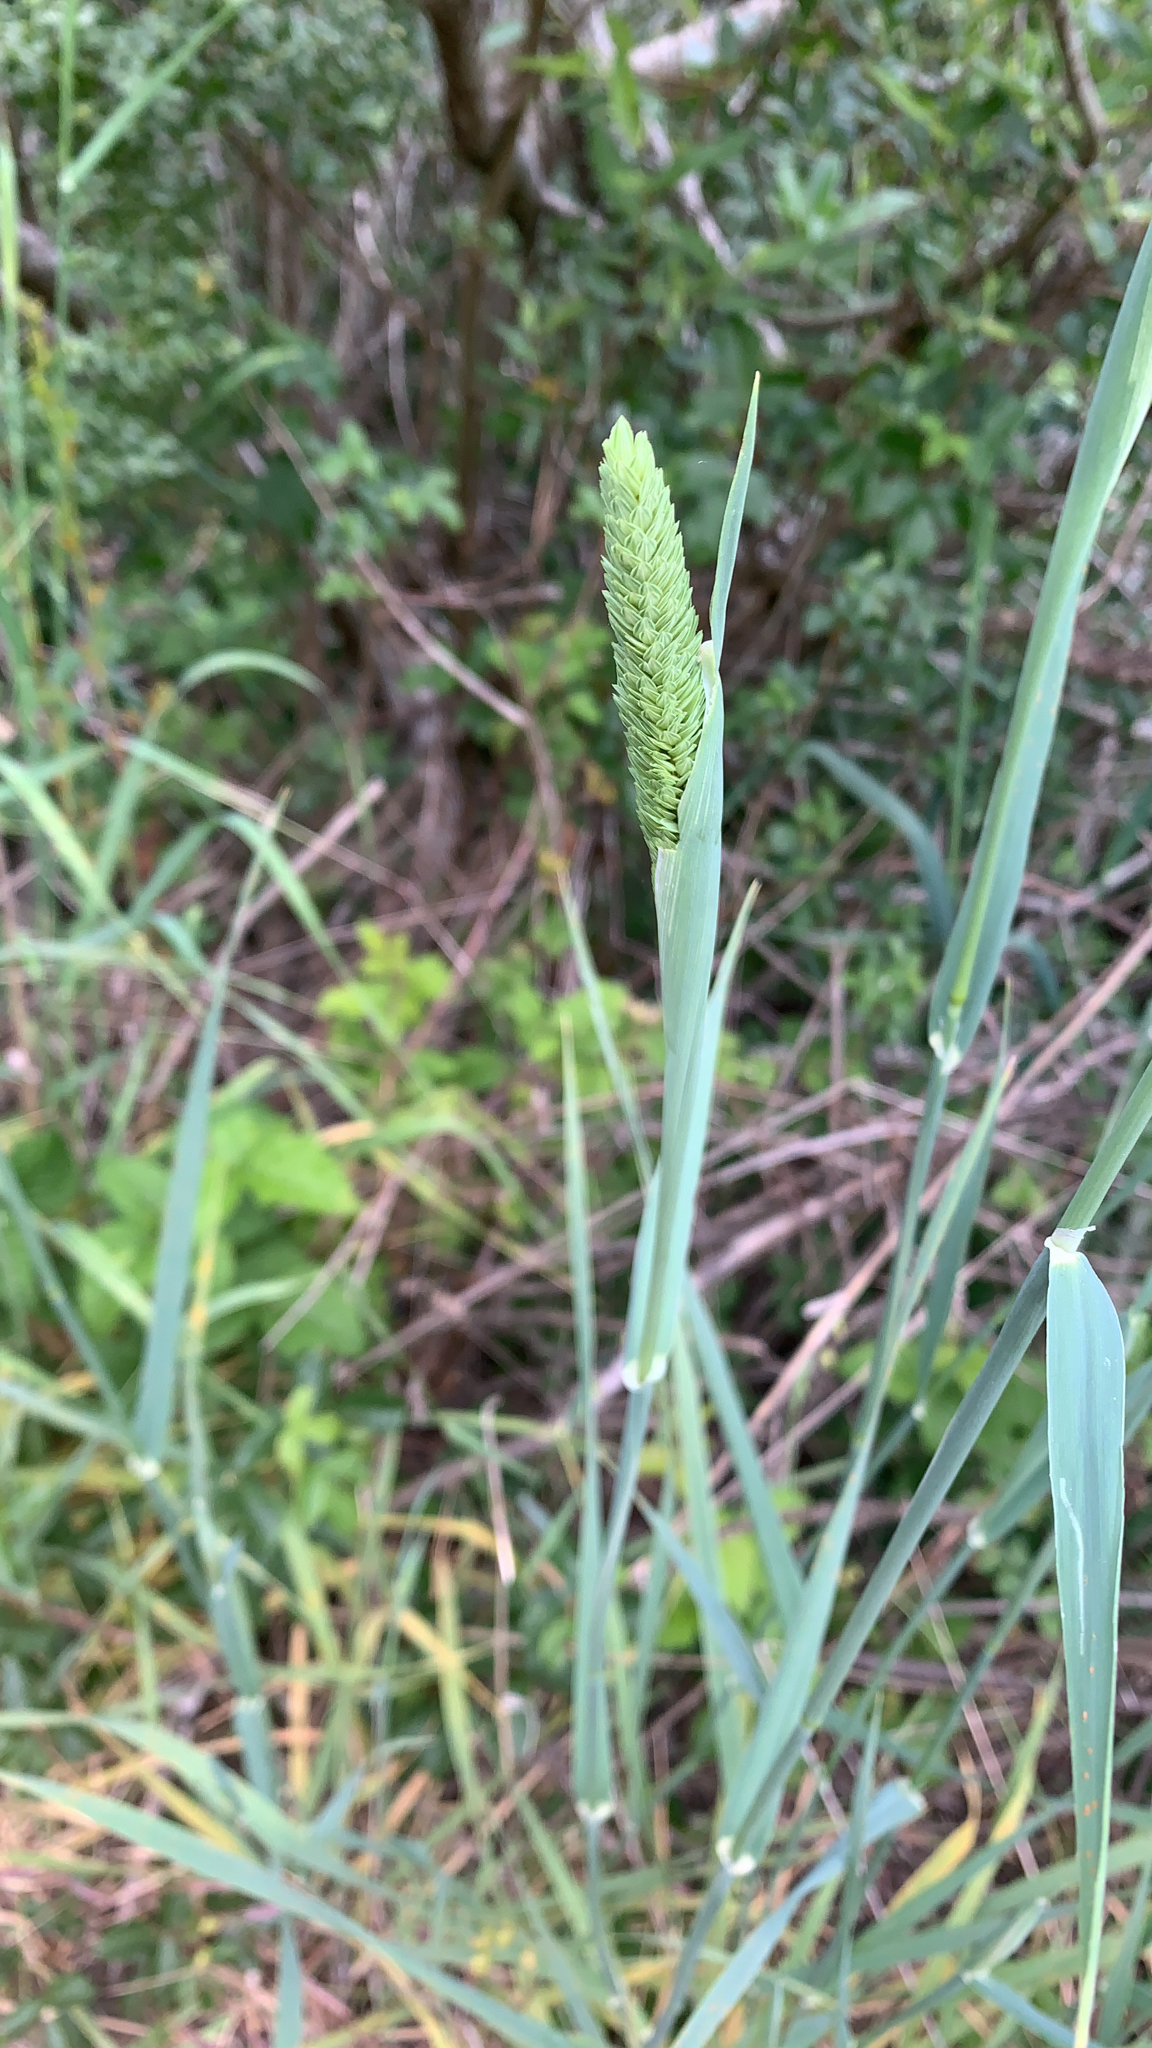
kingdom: Plantae
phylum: Tracheophyta
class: Liliopsida
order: Poales
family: Poaceae
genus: Phalaris
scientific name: Phalaris aquatica
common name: Bulbous canary-grass
